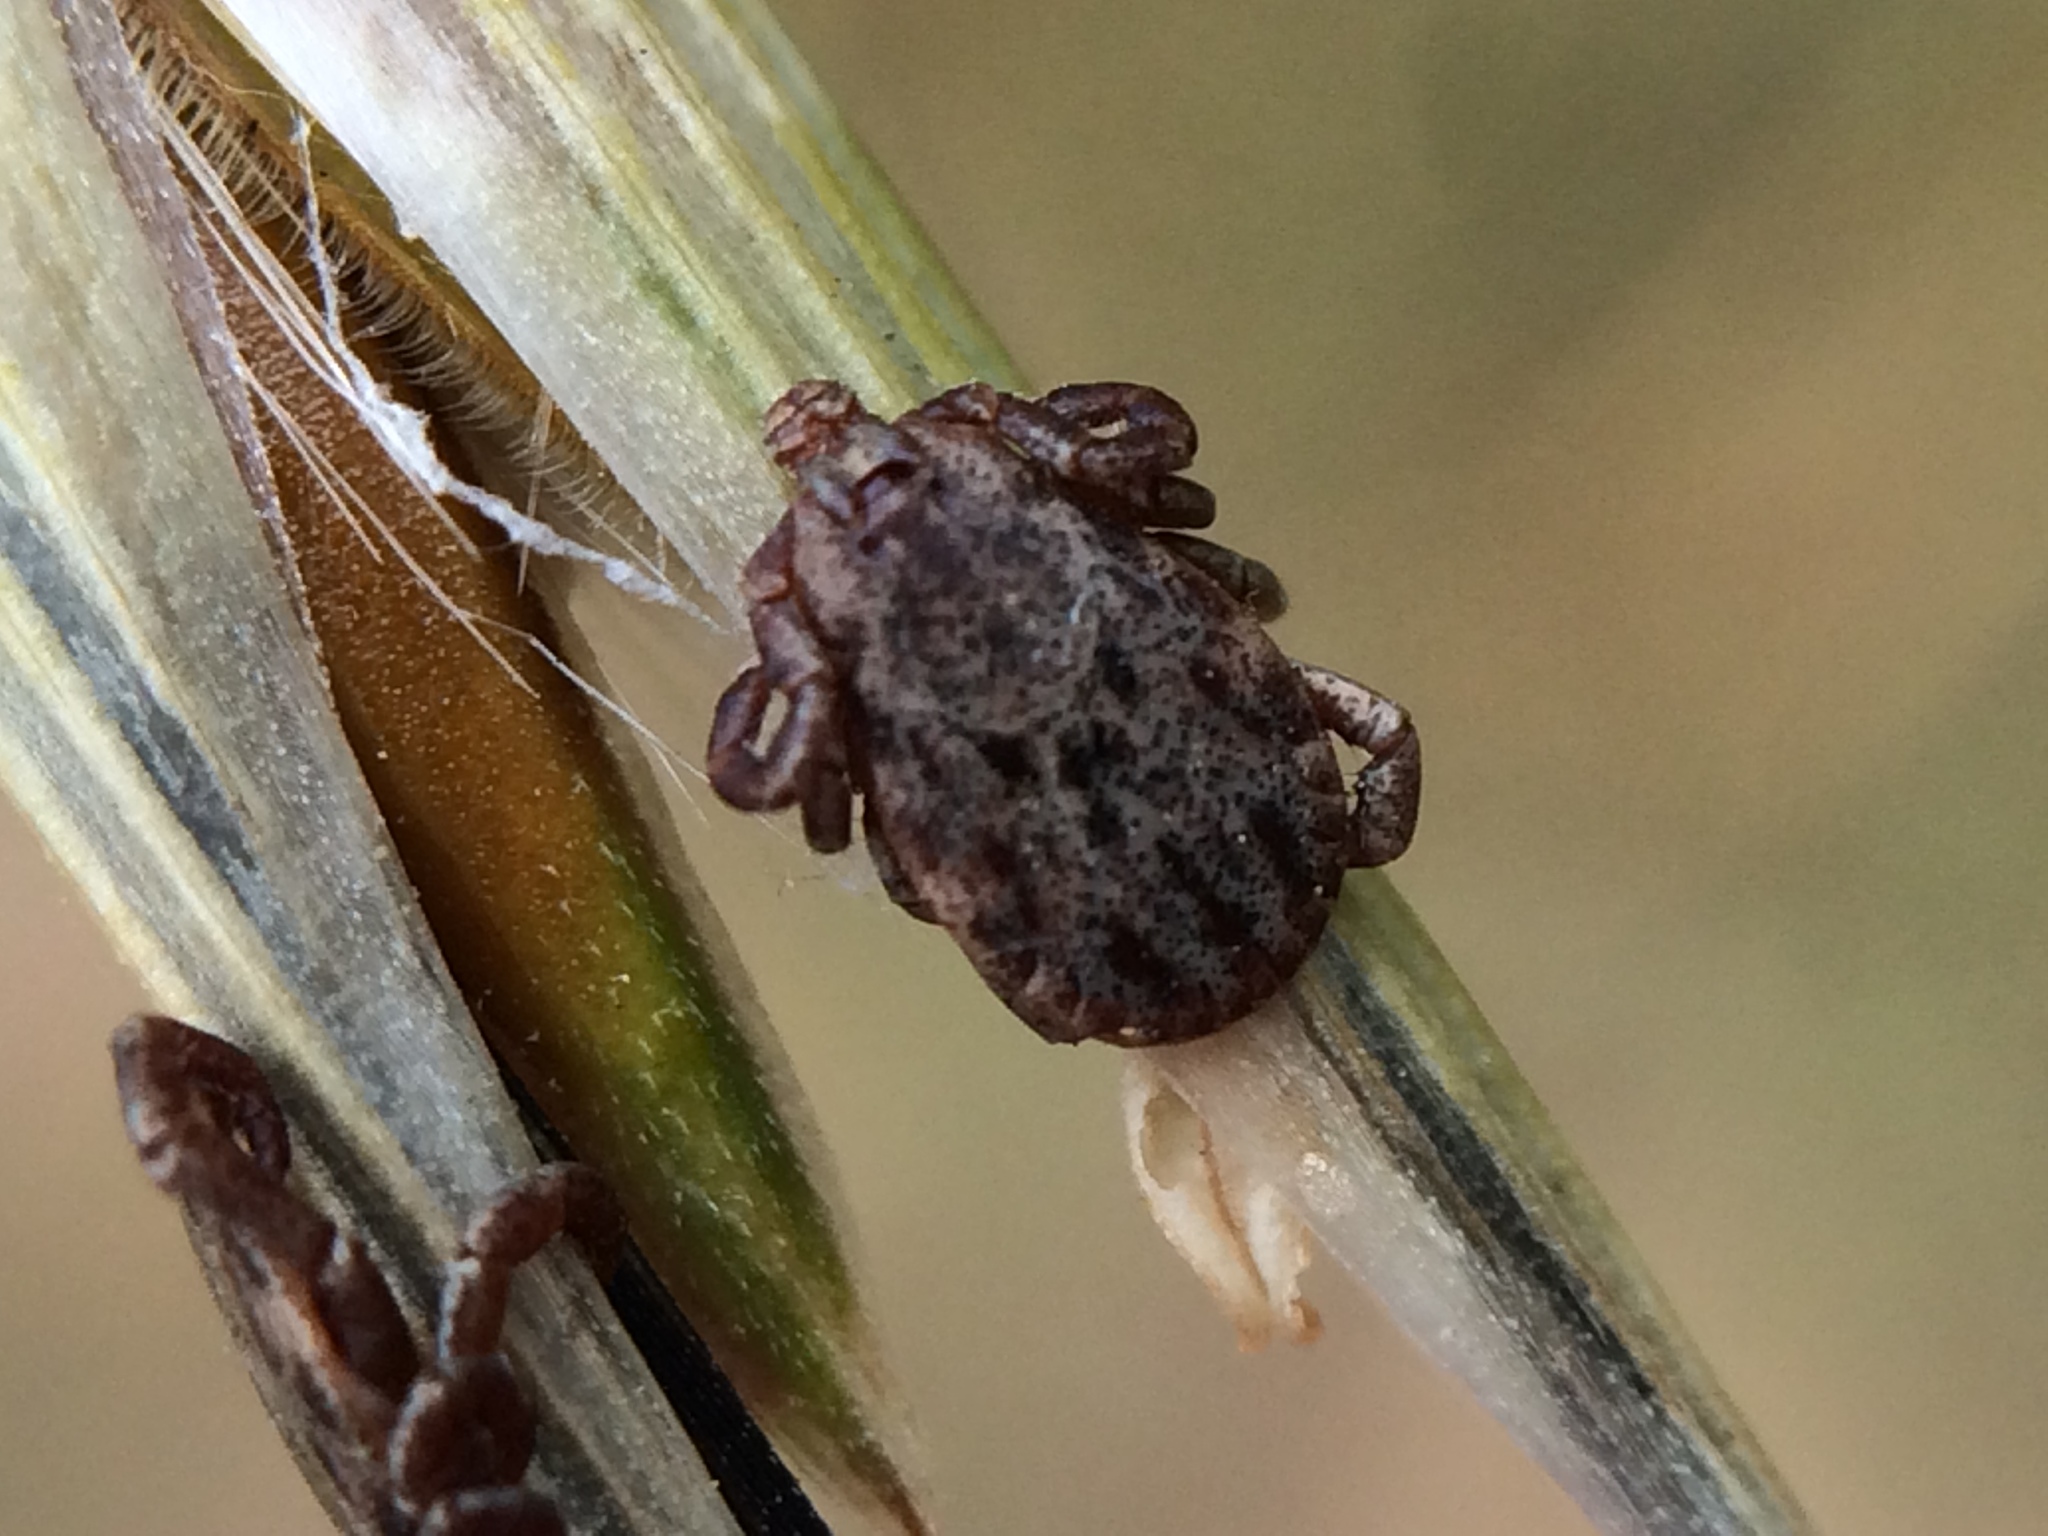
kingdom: Animalia
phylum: Arthropoda
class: Arachnida
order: Ixodida
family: Ixodidae
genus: Dermacentor
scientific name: Dermacentor occidentalis
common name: Net tick
